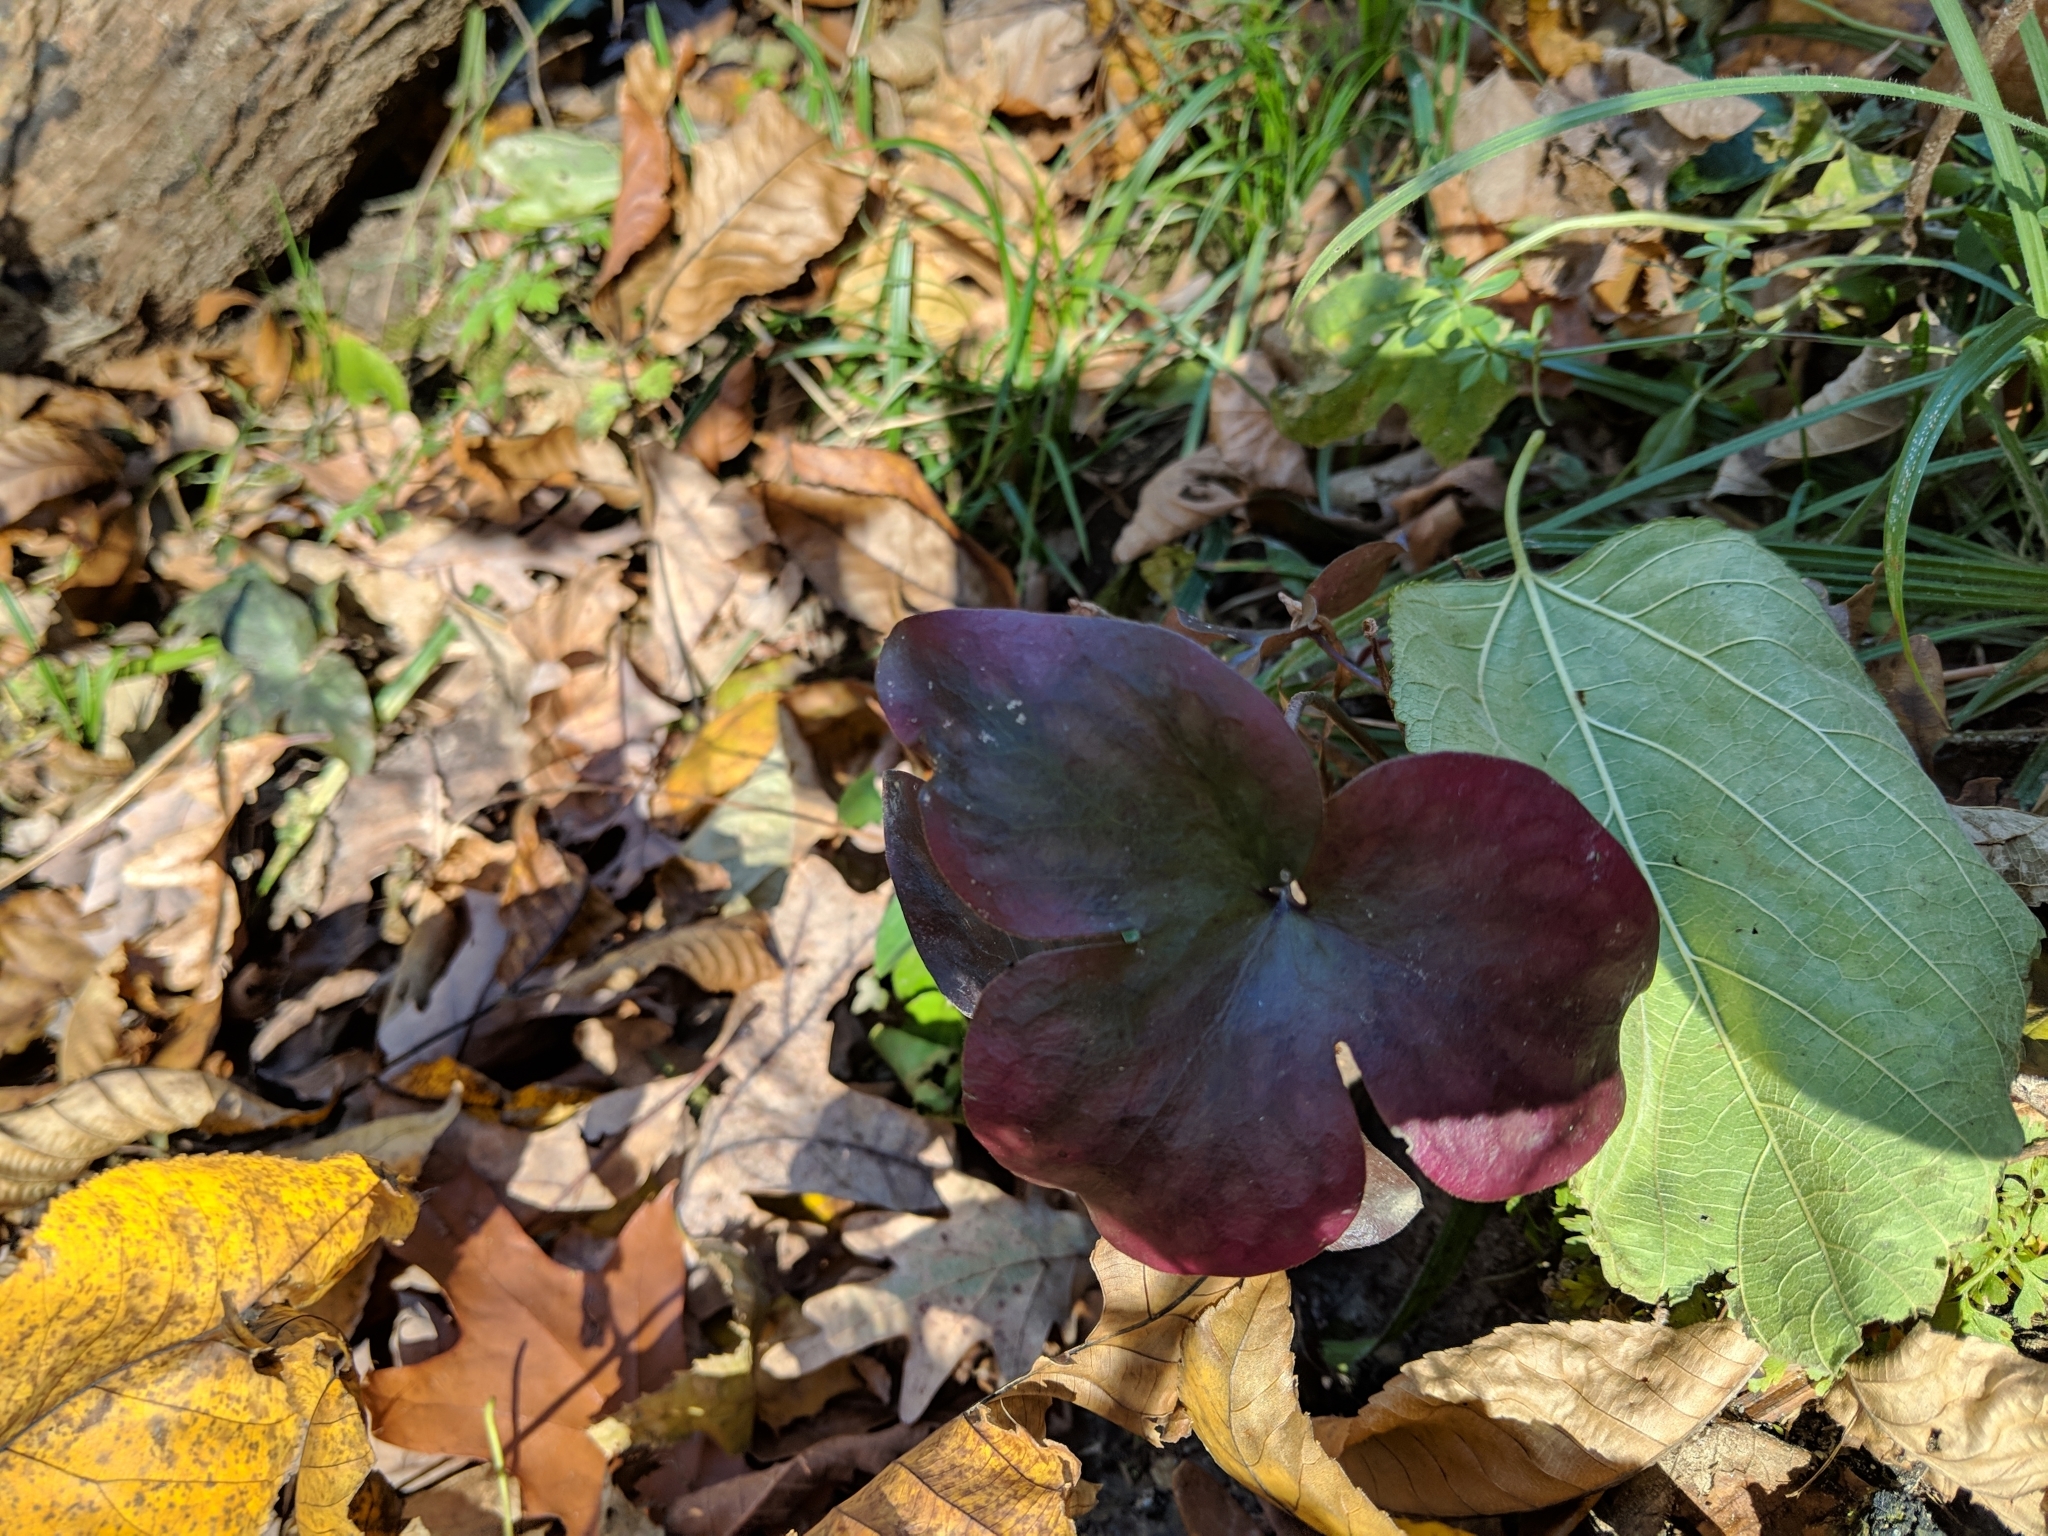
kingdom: Plantae
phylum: Tracheophyta
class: Magnoliopsida
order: Ranunculales
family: Ranunculaceae
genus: Hepatica
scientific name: Hepatica acutiloba
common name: Sharp-lobed hepatica
